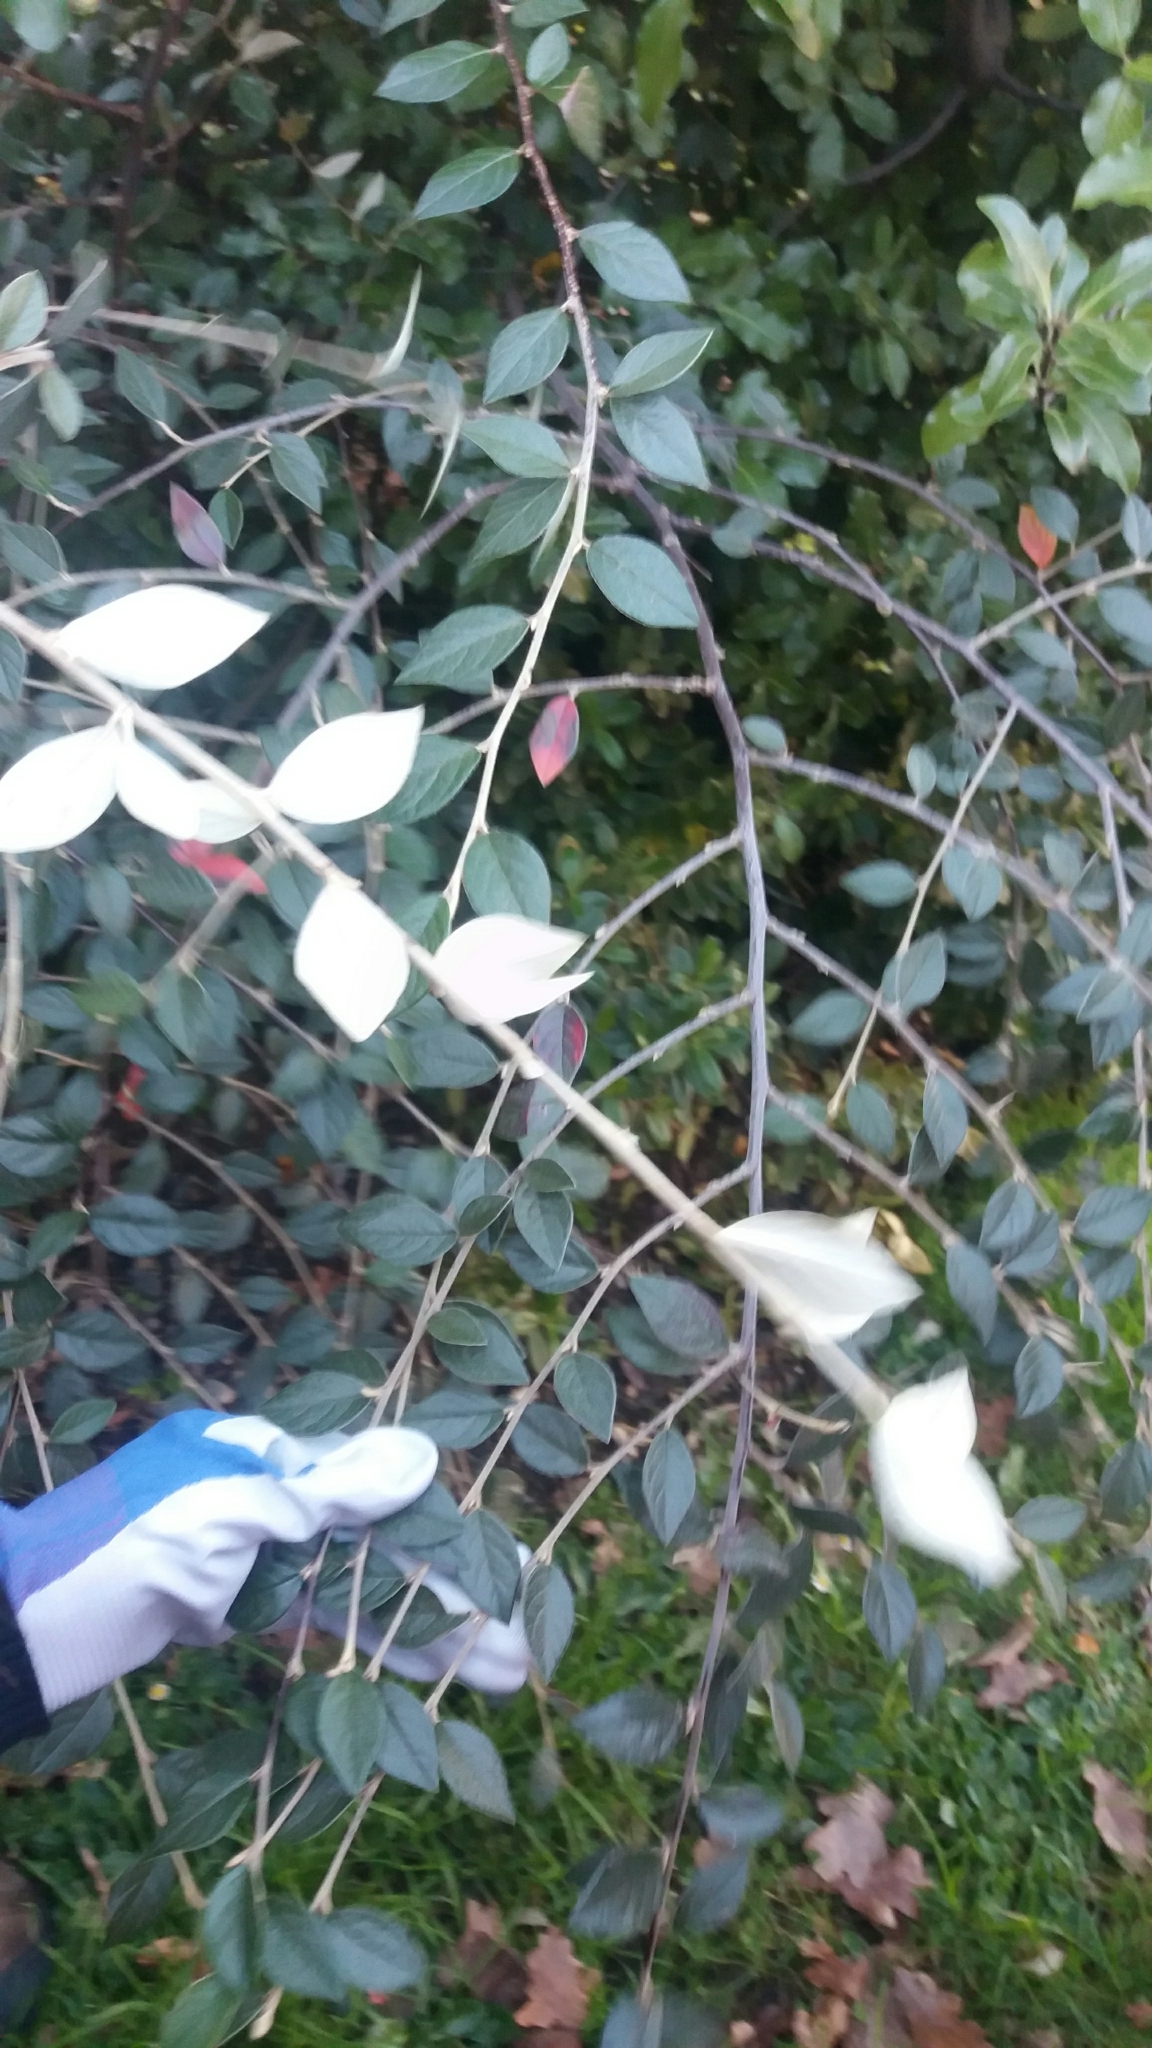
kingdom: Plantae
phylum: Tracheophyta
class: Magnoliopsida
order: Rosales
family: Rosaceae
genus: Cotoneaster
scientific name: Cotoneaster franchetii
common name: Franchet's cotoneaster
